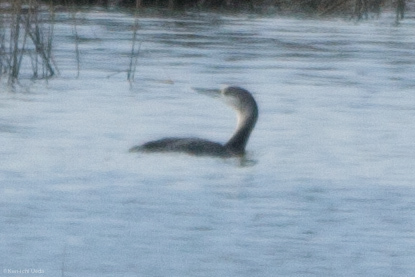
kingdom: Animalia
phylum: Chordata
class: Aves
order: Gaviiformes
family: Gaviidae
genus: Gavia
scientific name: Gavia stellata
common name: Red-throated loon
